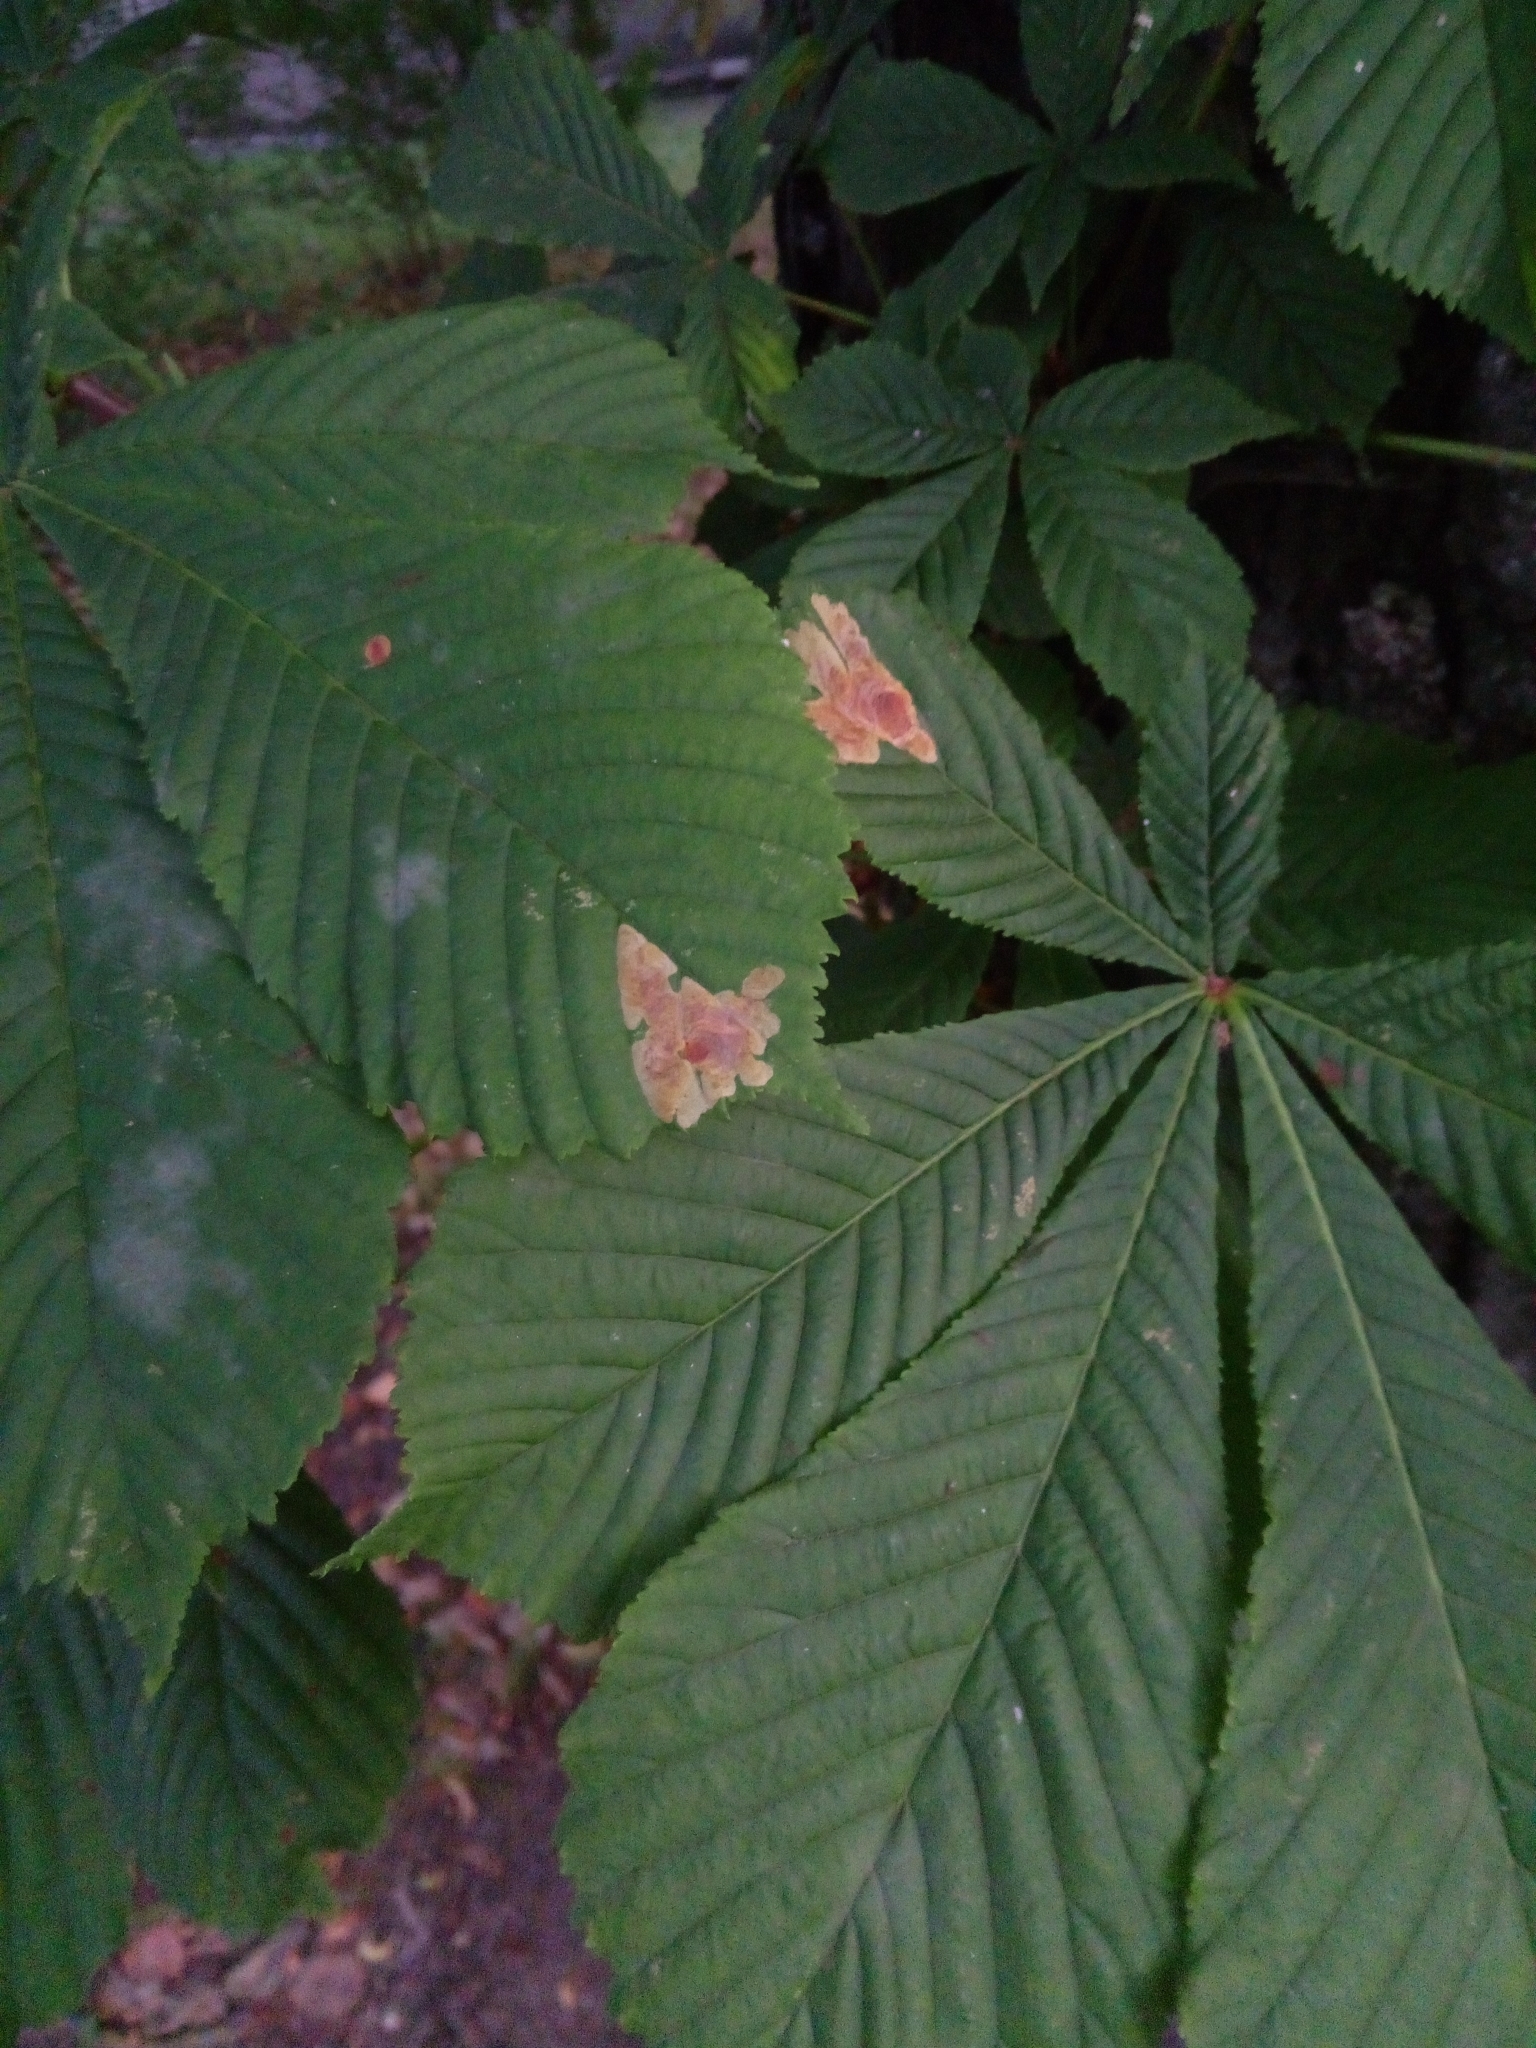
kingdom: Animalia
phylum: Arthropoda
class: Insecta
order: Lepidoptera
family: Gracillariidae
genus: Cameraria
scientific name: Cameraria ohridella
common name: Horse-chestnut leaf-miner
